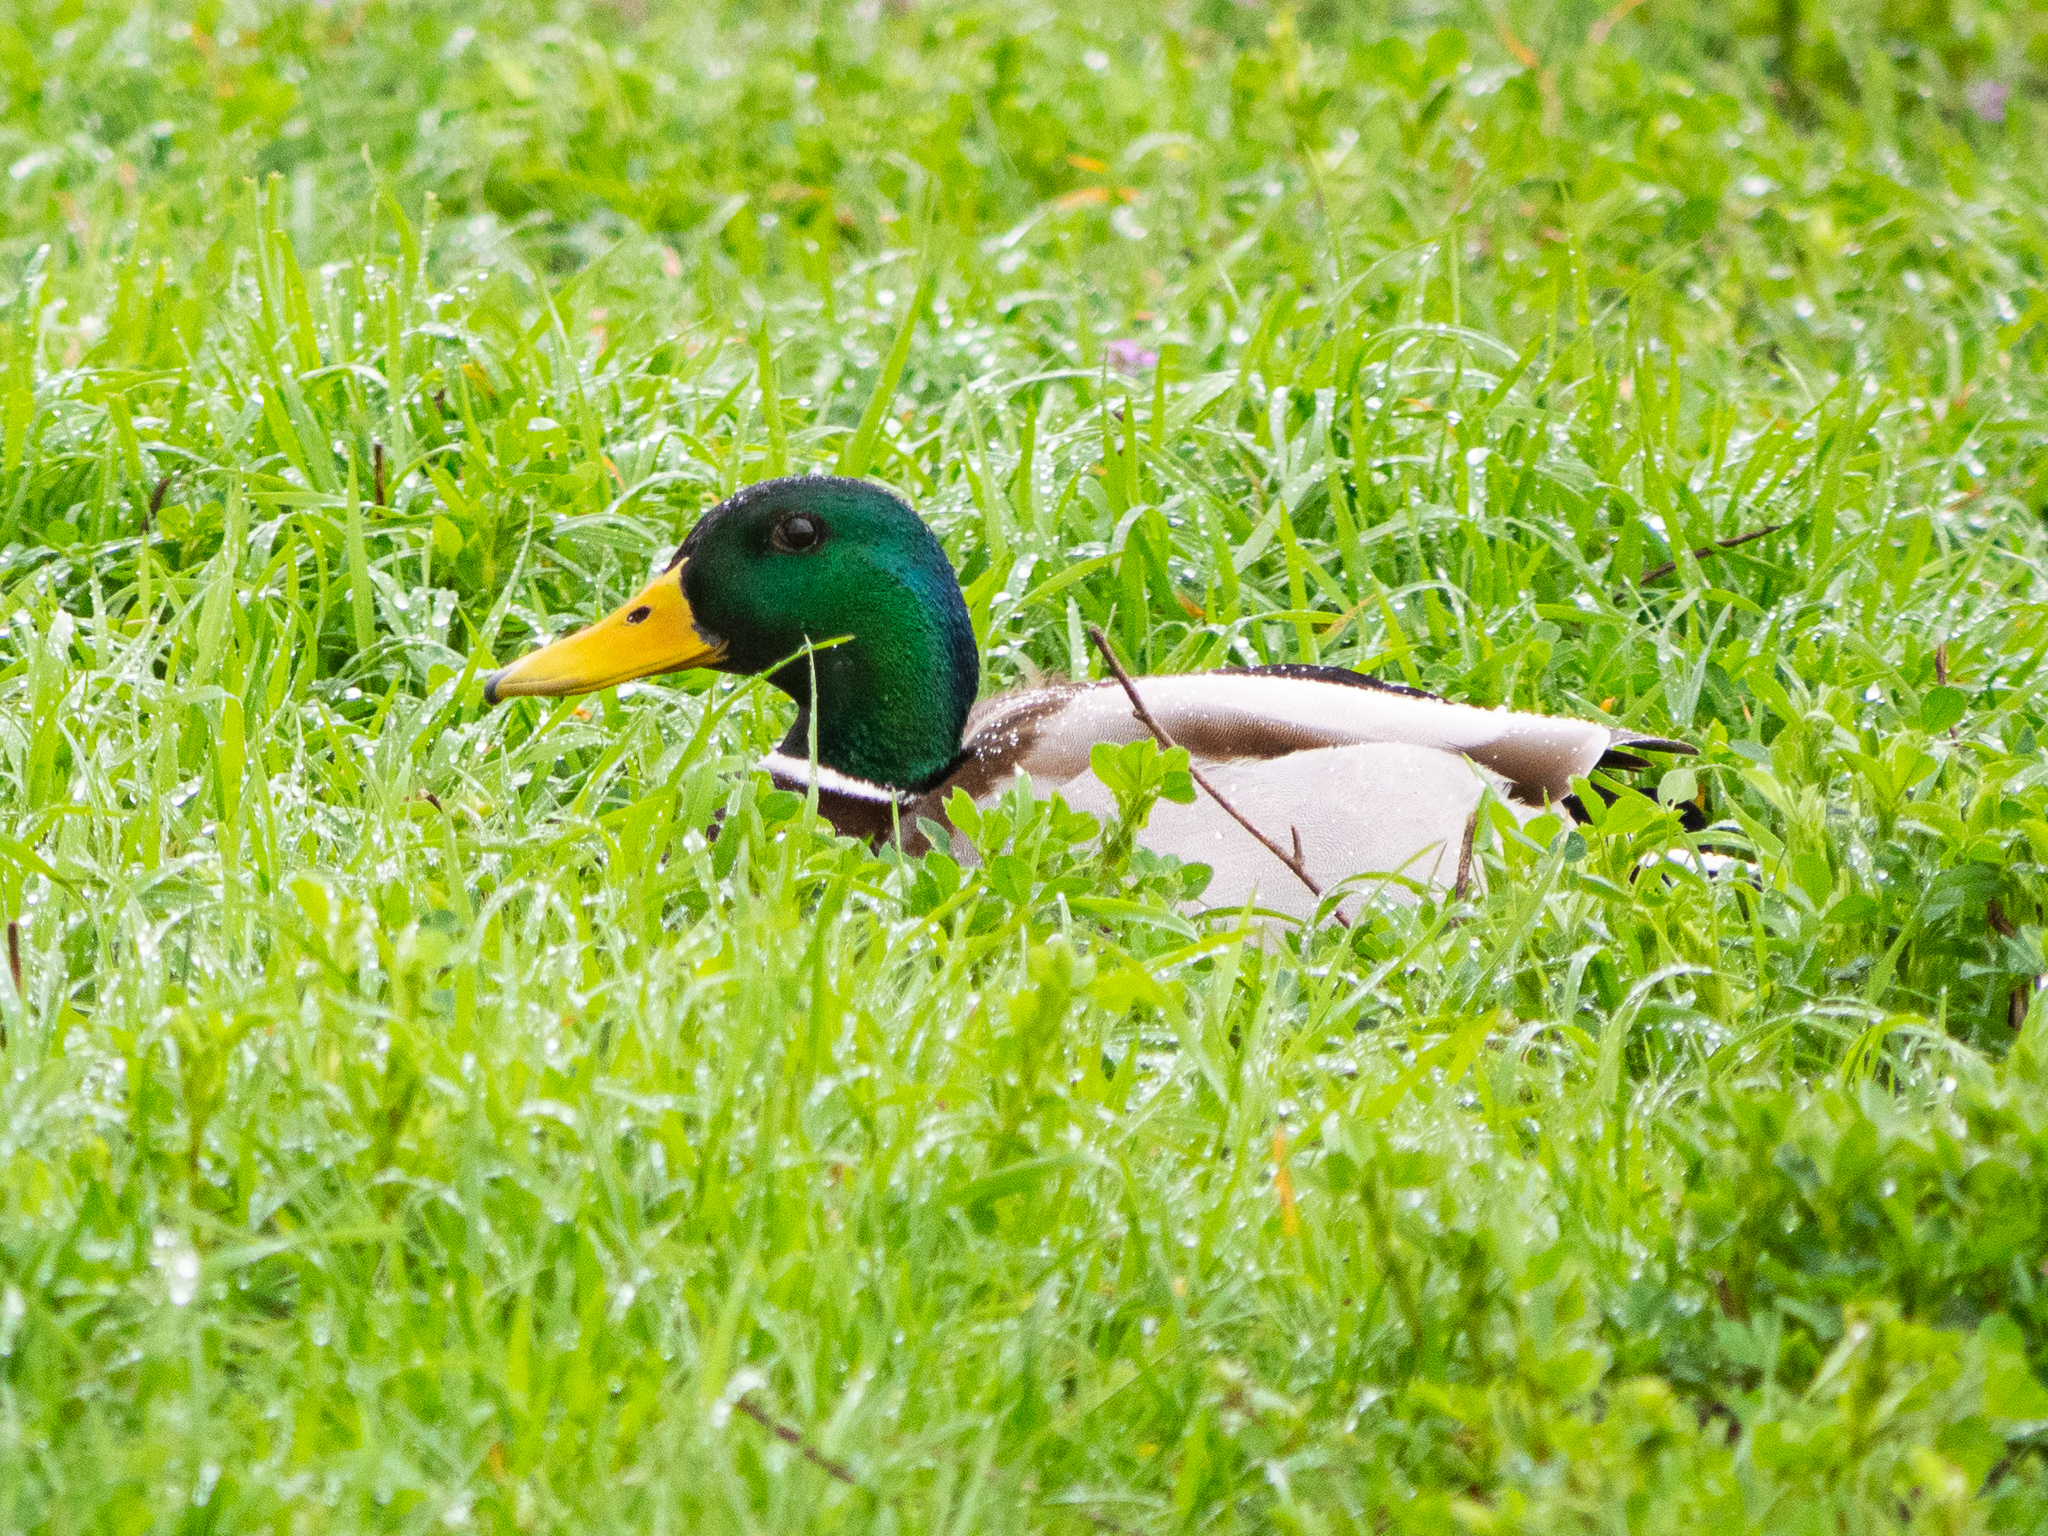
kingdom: Animalia
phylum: Chordata
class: Aves
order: Anseriformes
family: Anatidae
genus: Anas
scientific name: Anas platyrhynchos
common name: Mallard
